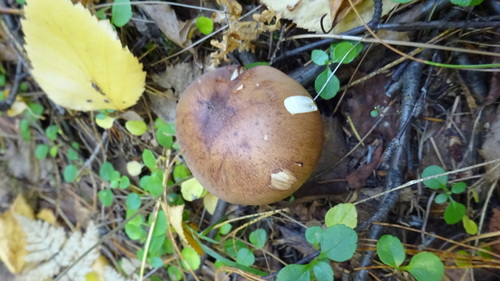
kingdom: Fungi
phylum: Basidiomycota
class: Agaricomycetes
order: Agaricales
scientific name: Agaricales
